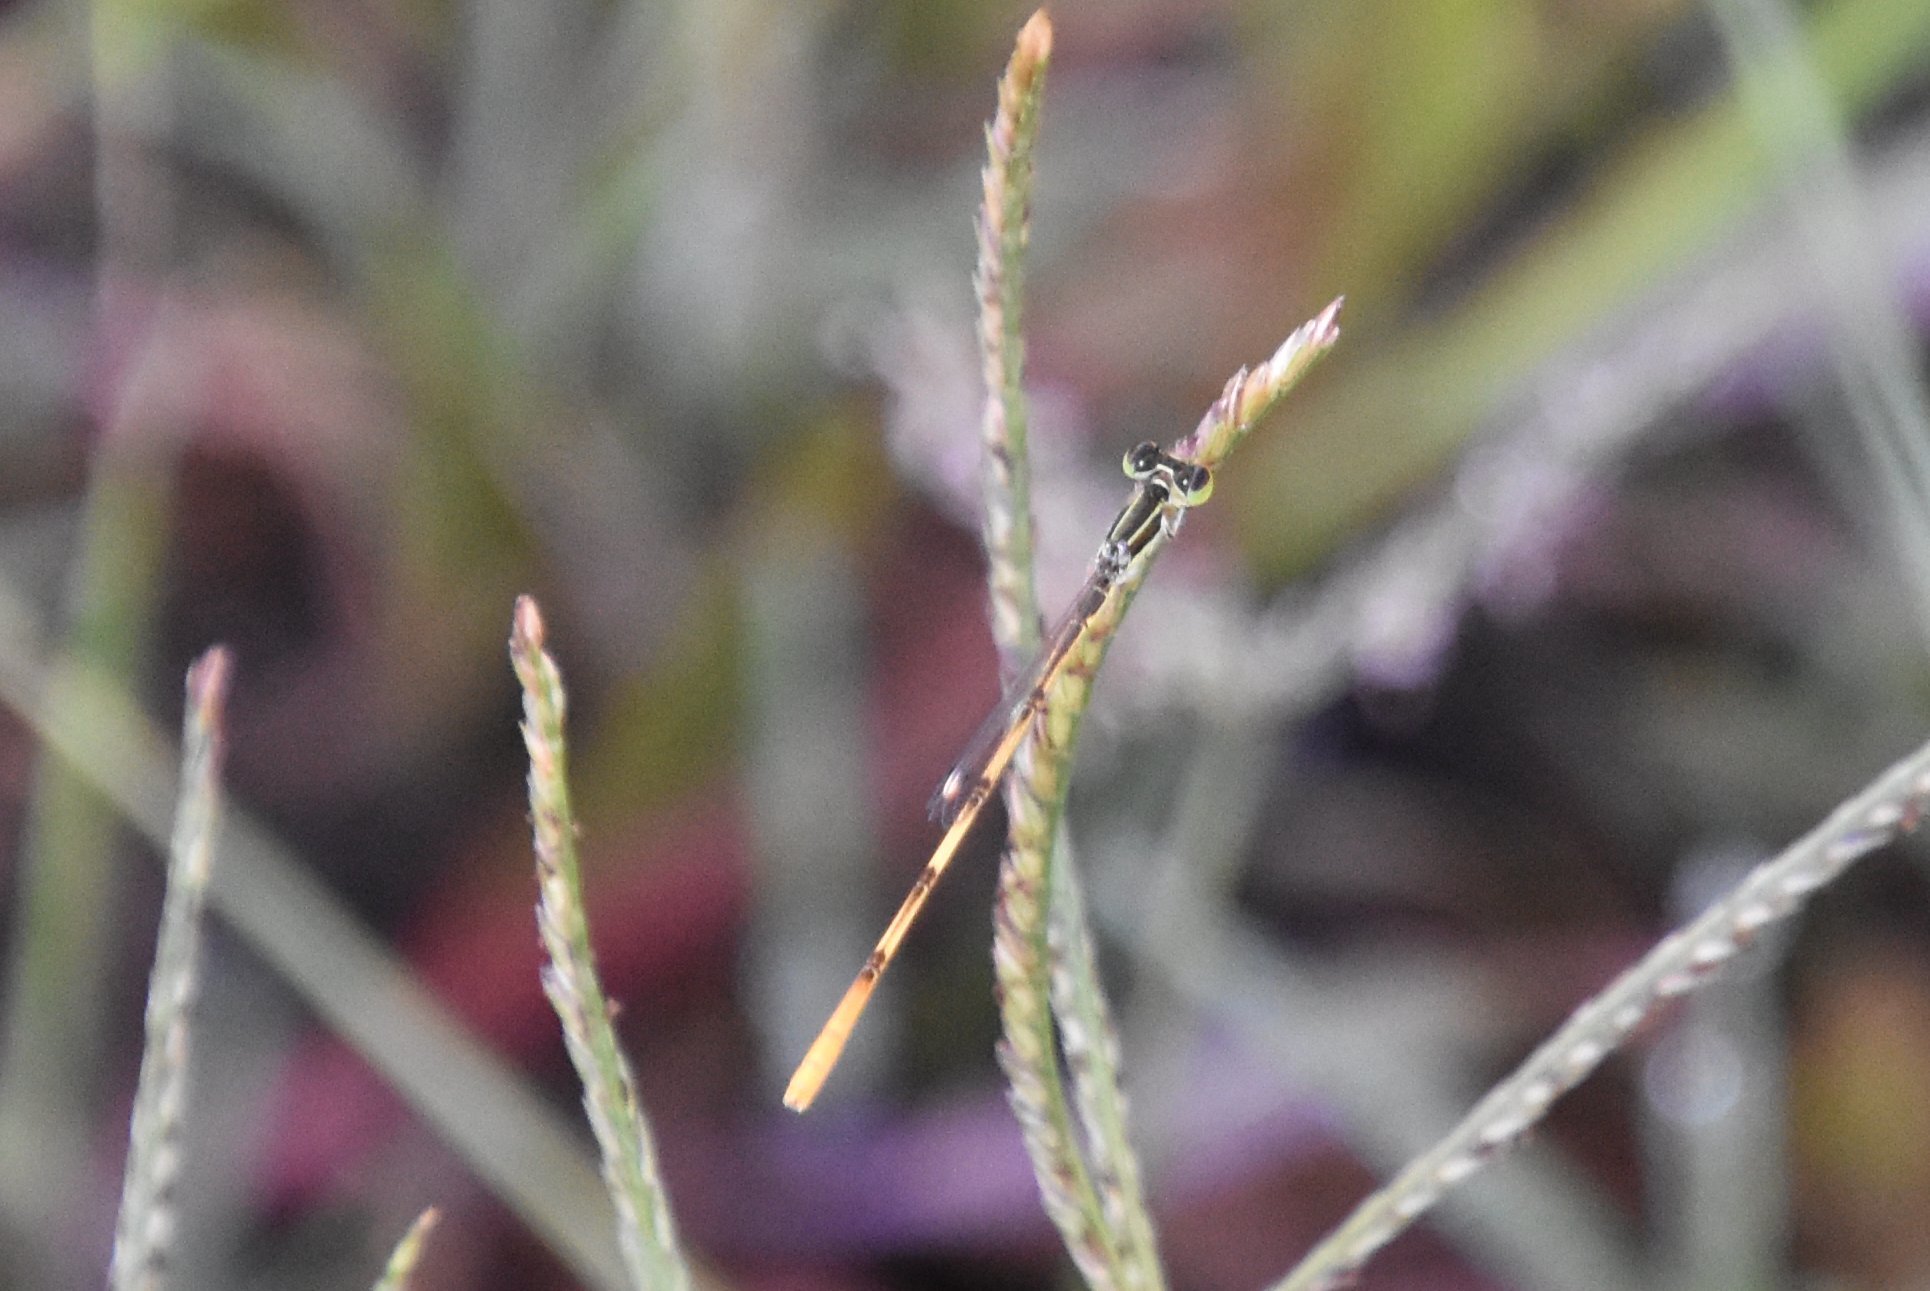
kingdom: Animalia
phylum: Arthropoda
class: Insecta
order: Odonata
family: Coenagrionidae
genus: Ischnura
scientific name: Ischnura hastata
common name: Citrine forktail
